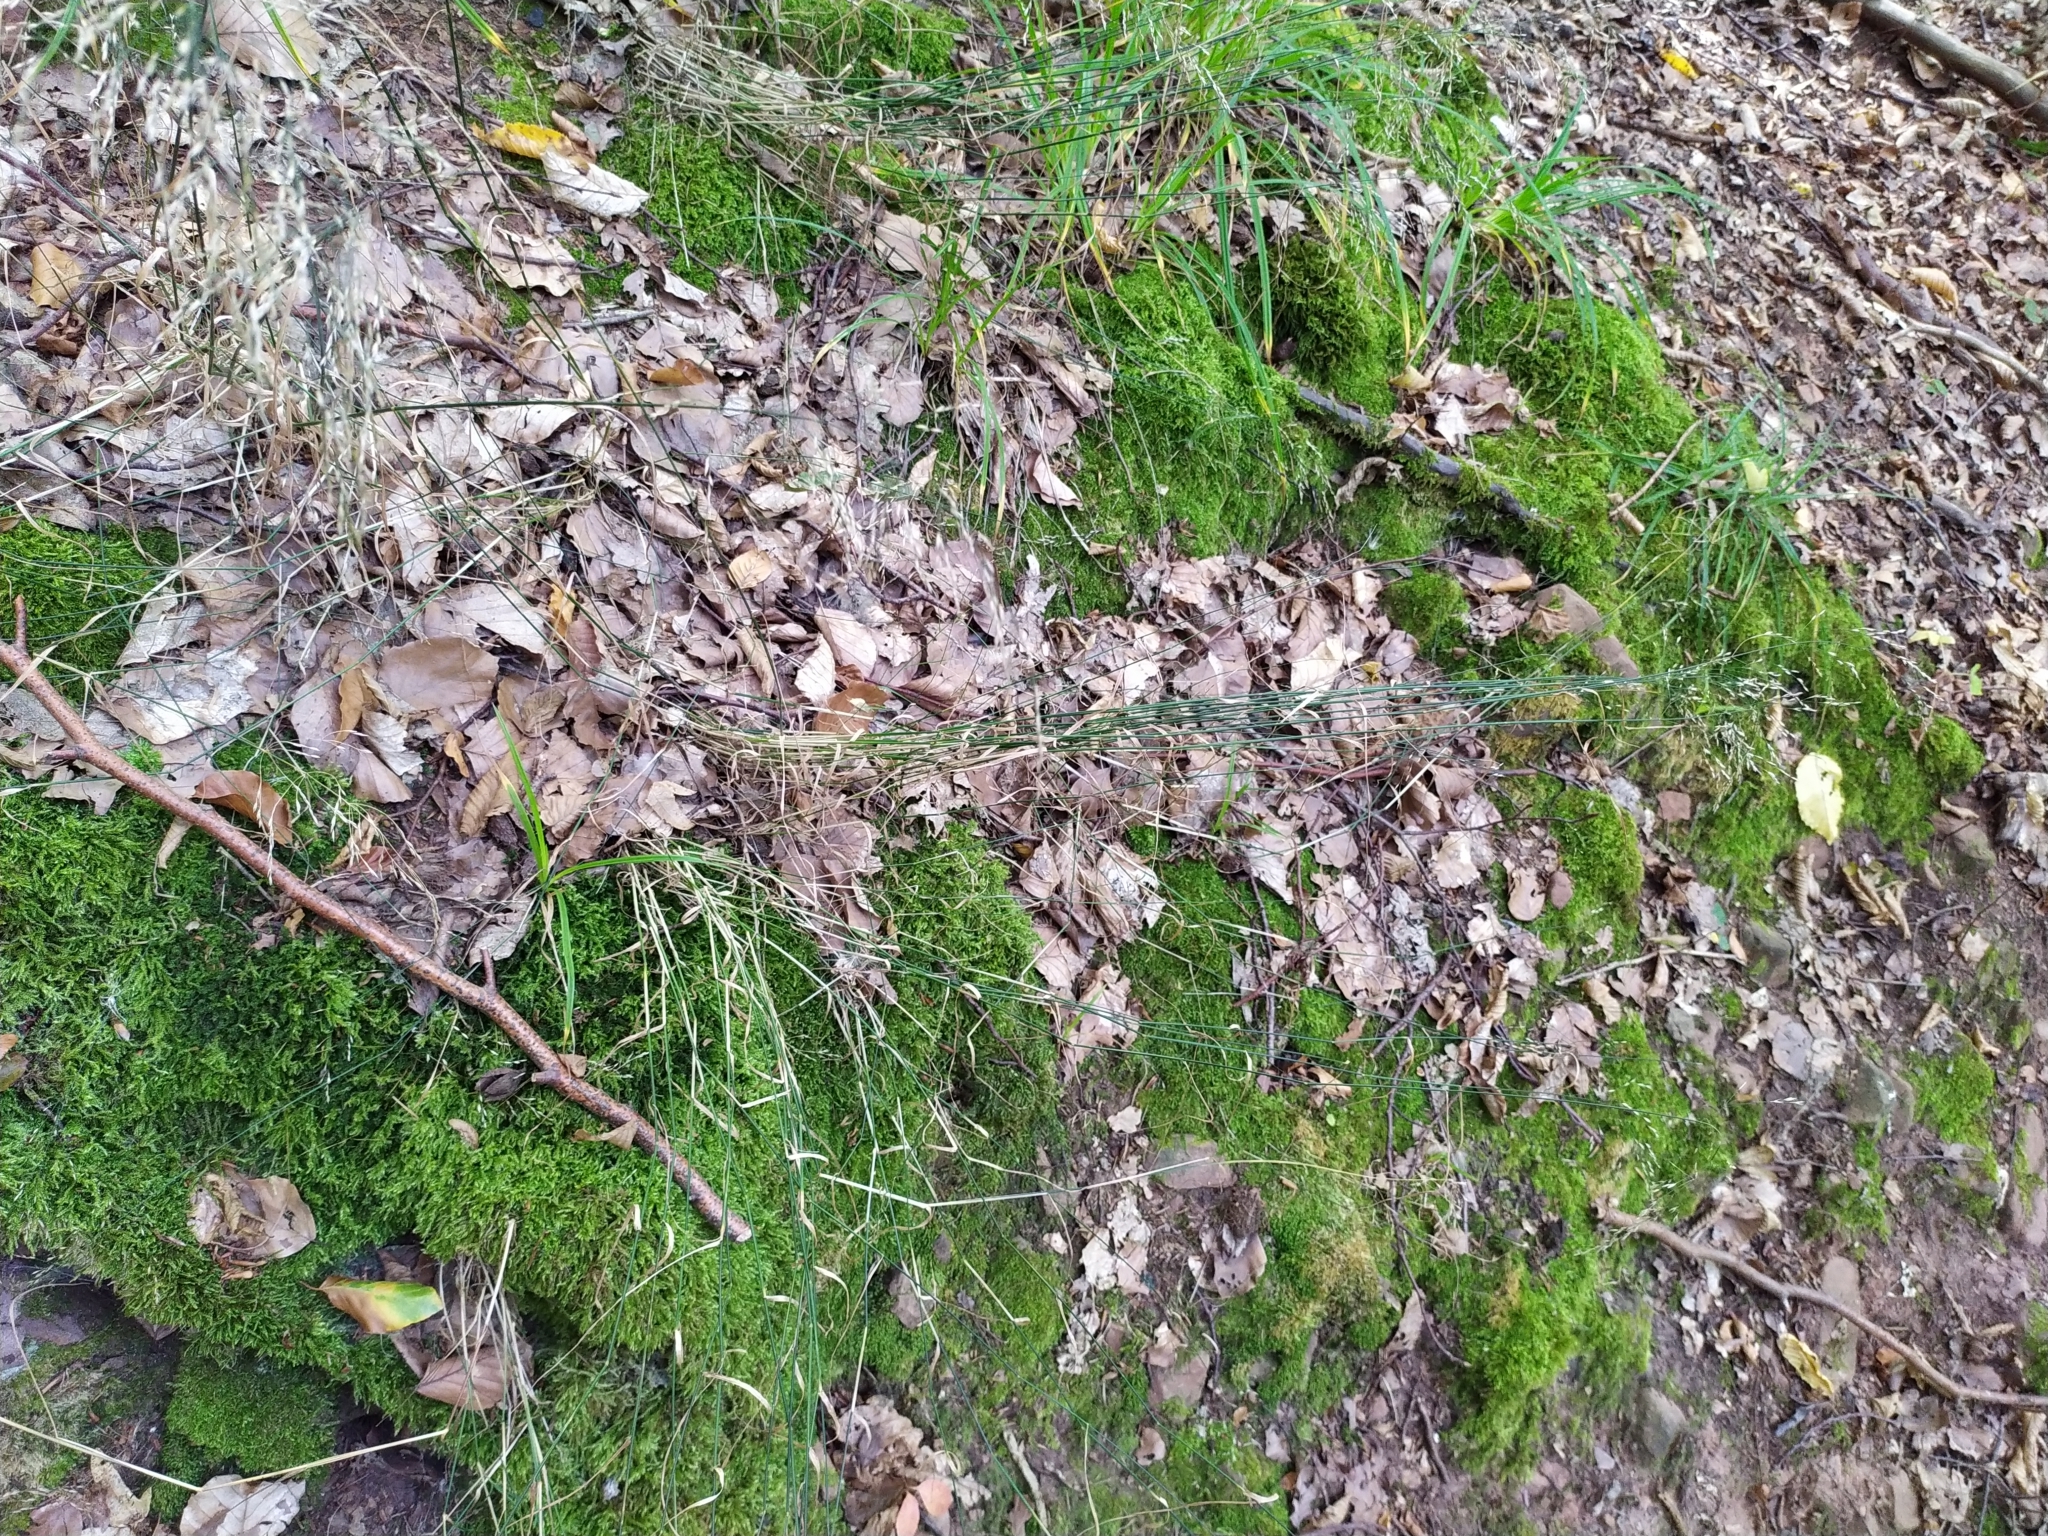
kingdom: Plantae
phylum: Tracheophyta
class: Liliopsida
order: Poales
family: Poaceae
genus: Poa
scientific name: Poa nemoralis
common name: Wood bluegrass
